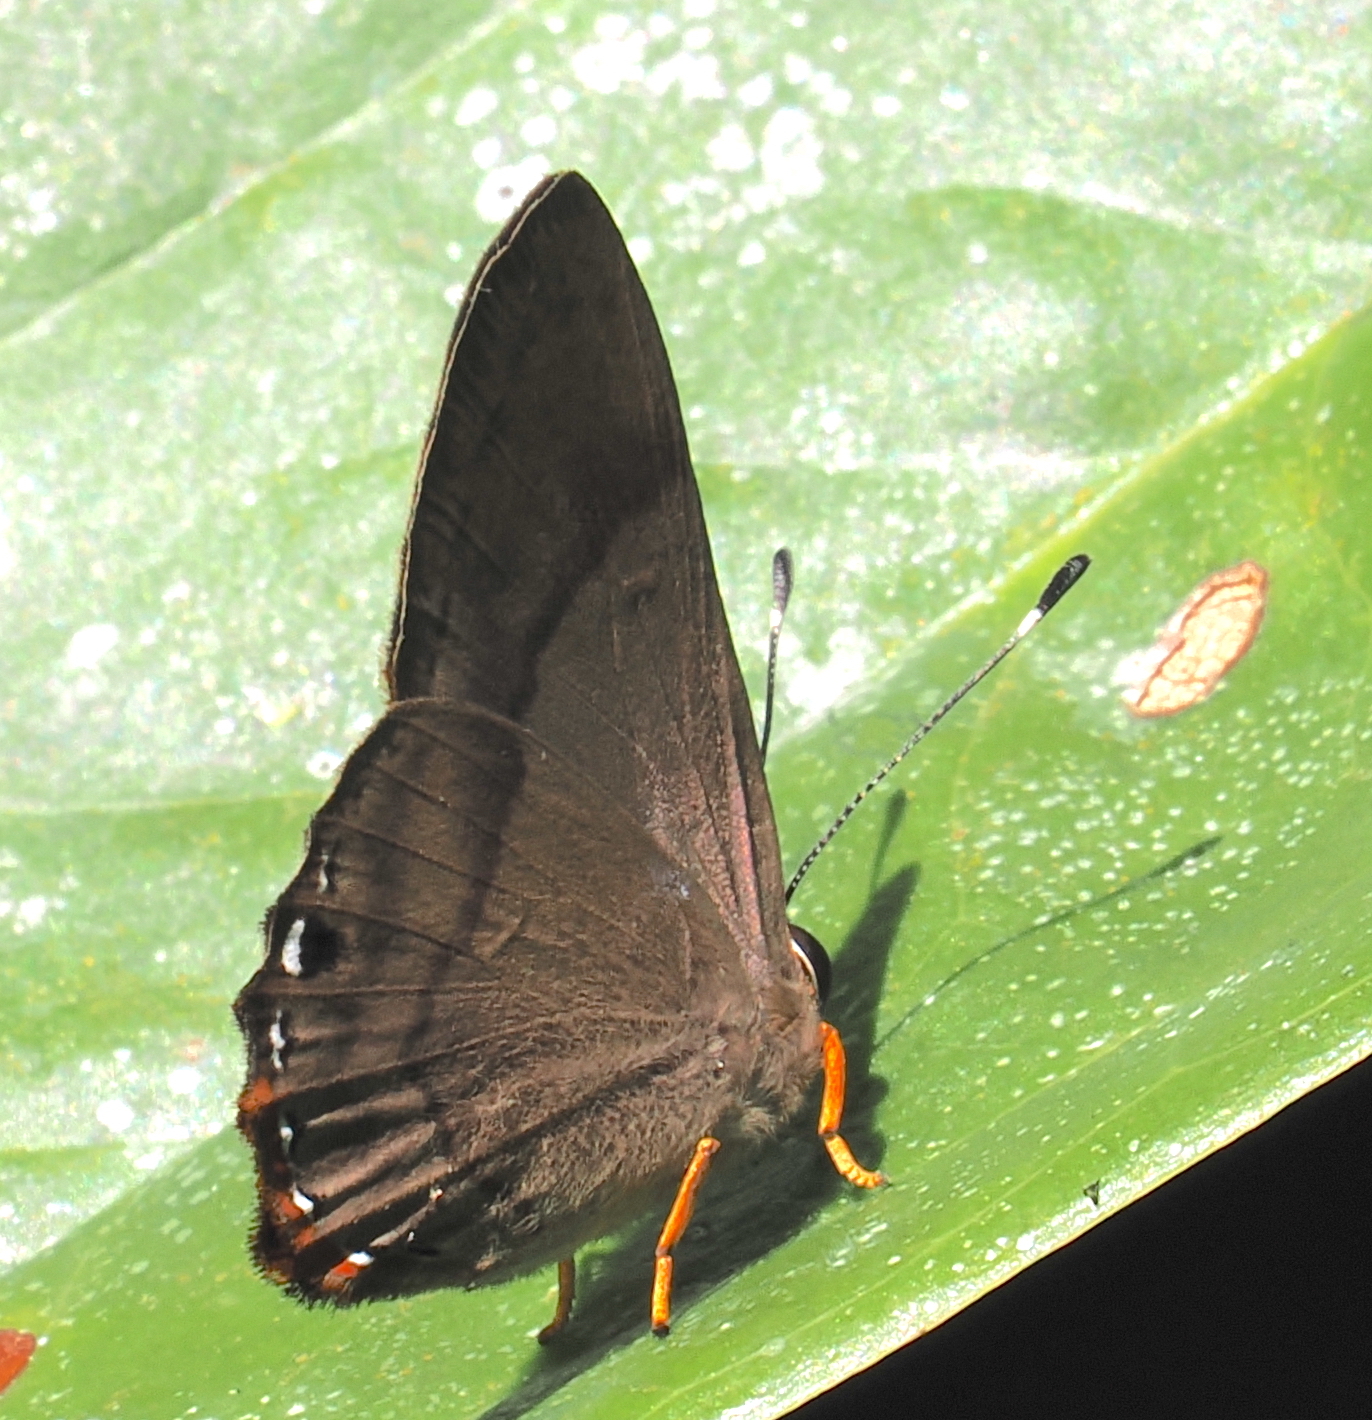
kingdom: Animalia
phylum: Arthropoda
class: Insecta
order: Lepidoptera
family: Riodinidae
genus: Pelolasia
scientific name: Pelolasia
